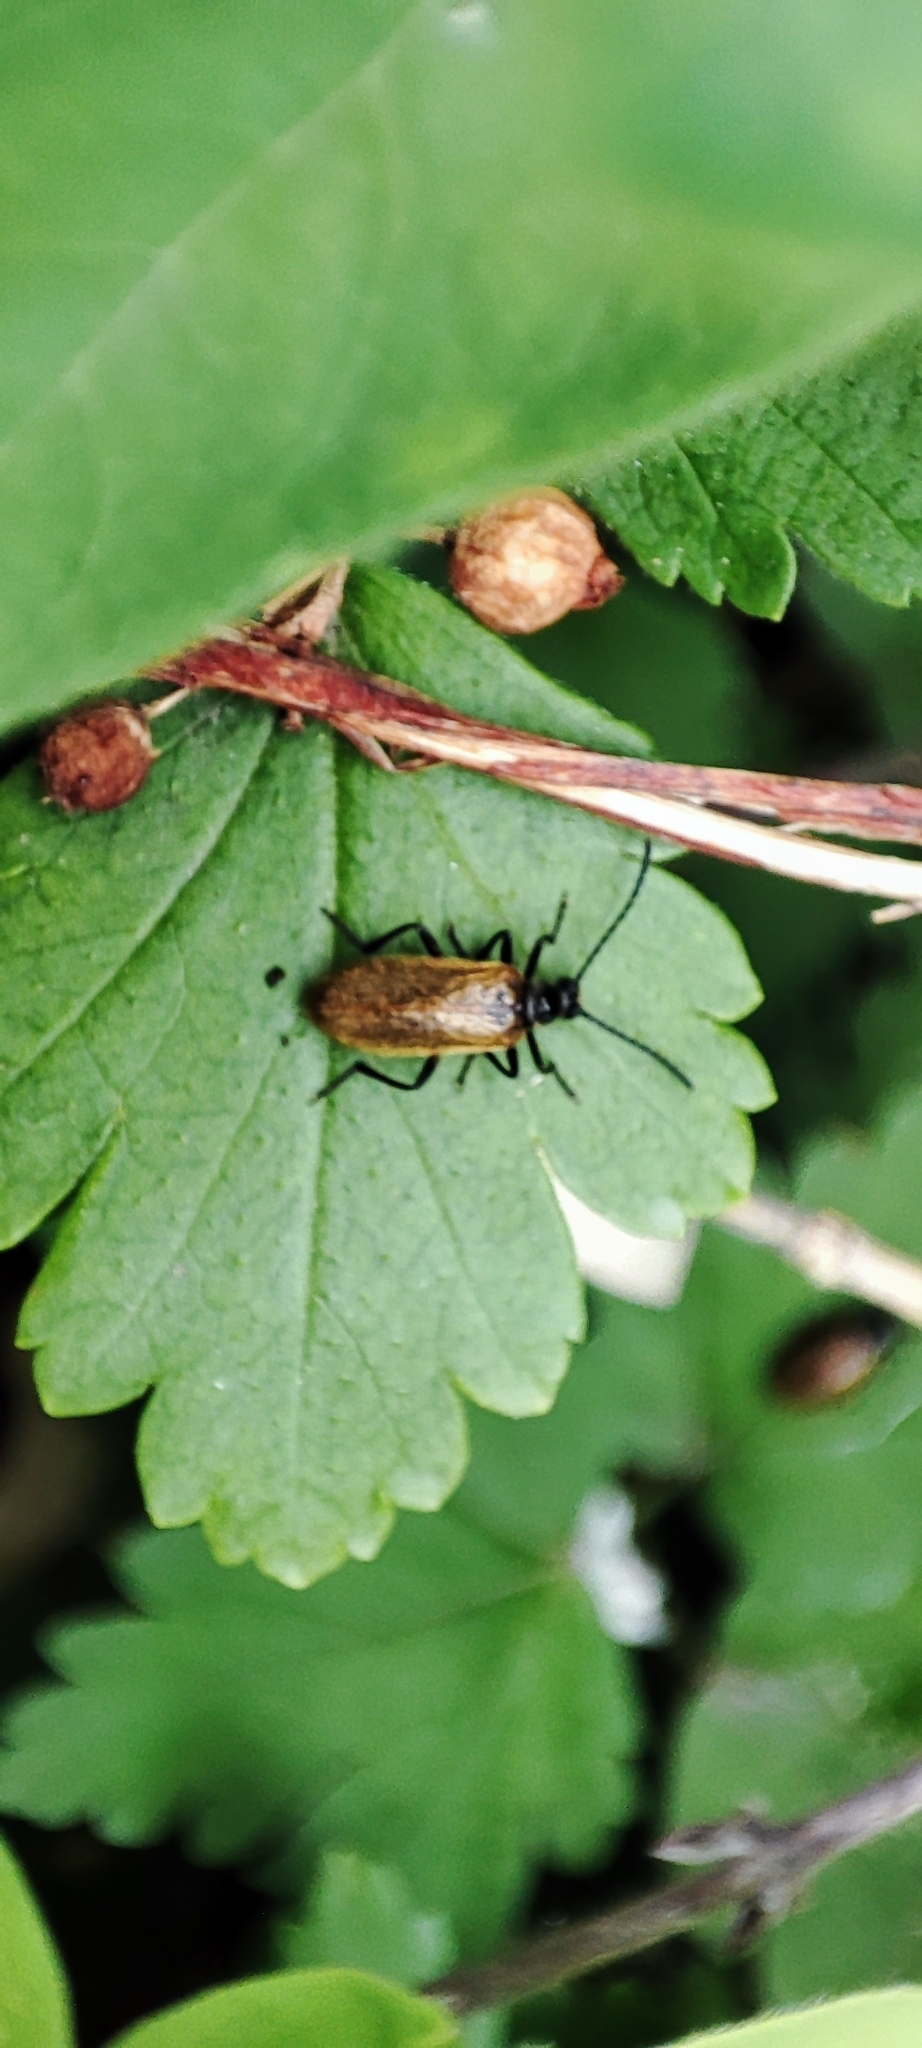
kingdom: Animalia
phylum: Arthropoda
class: Insecta
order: Coleoptera
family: Tenebrionidae
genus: Lagria
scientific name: Lagria hirta
